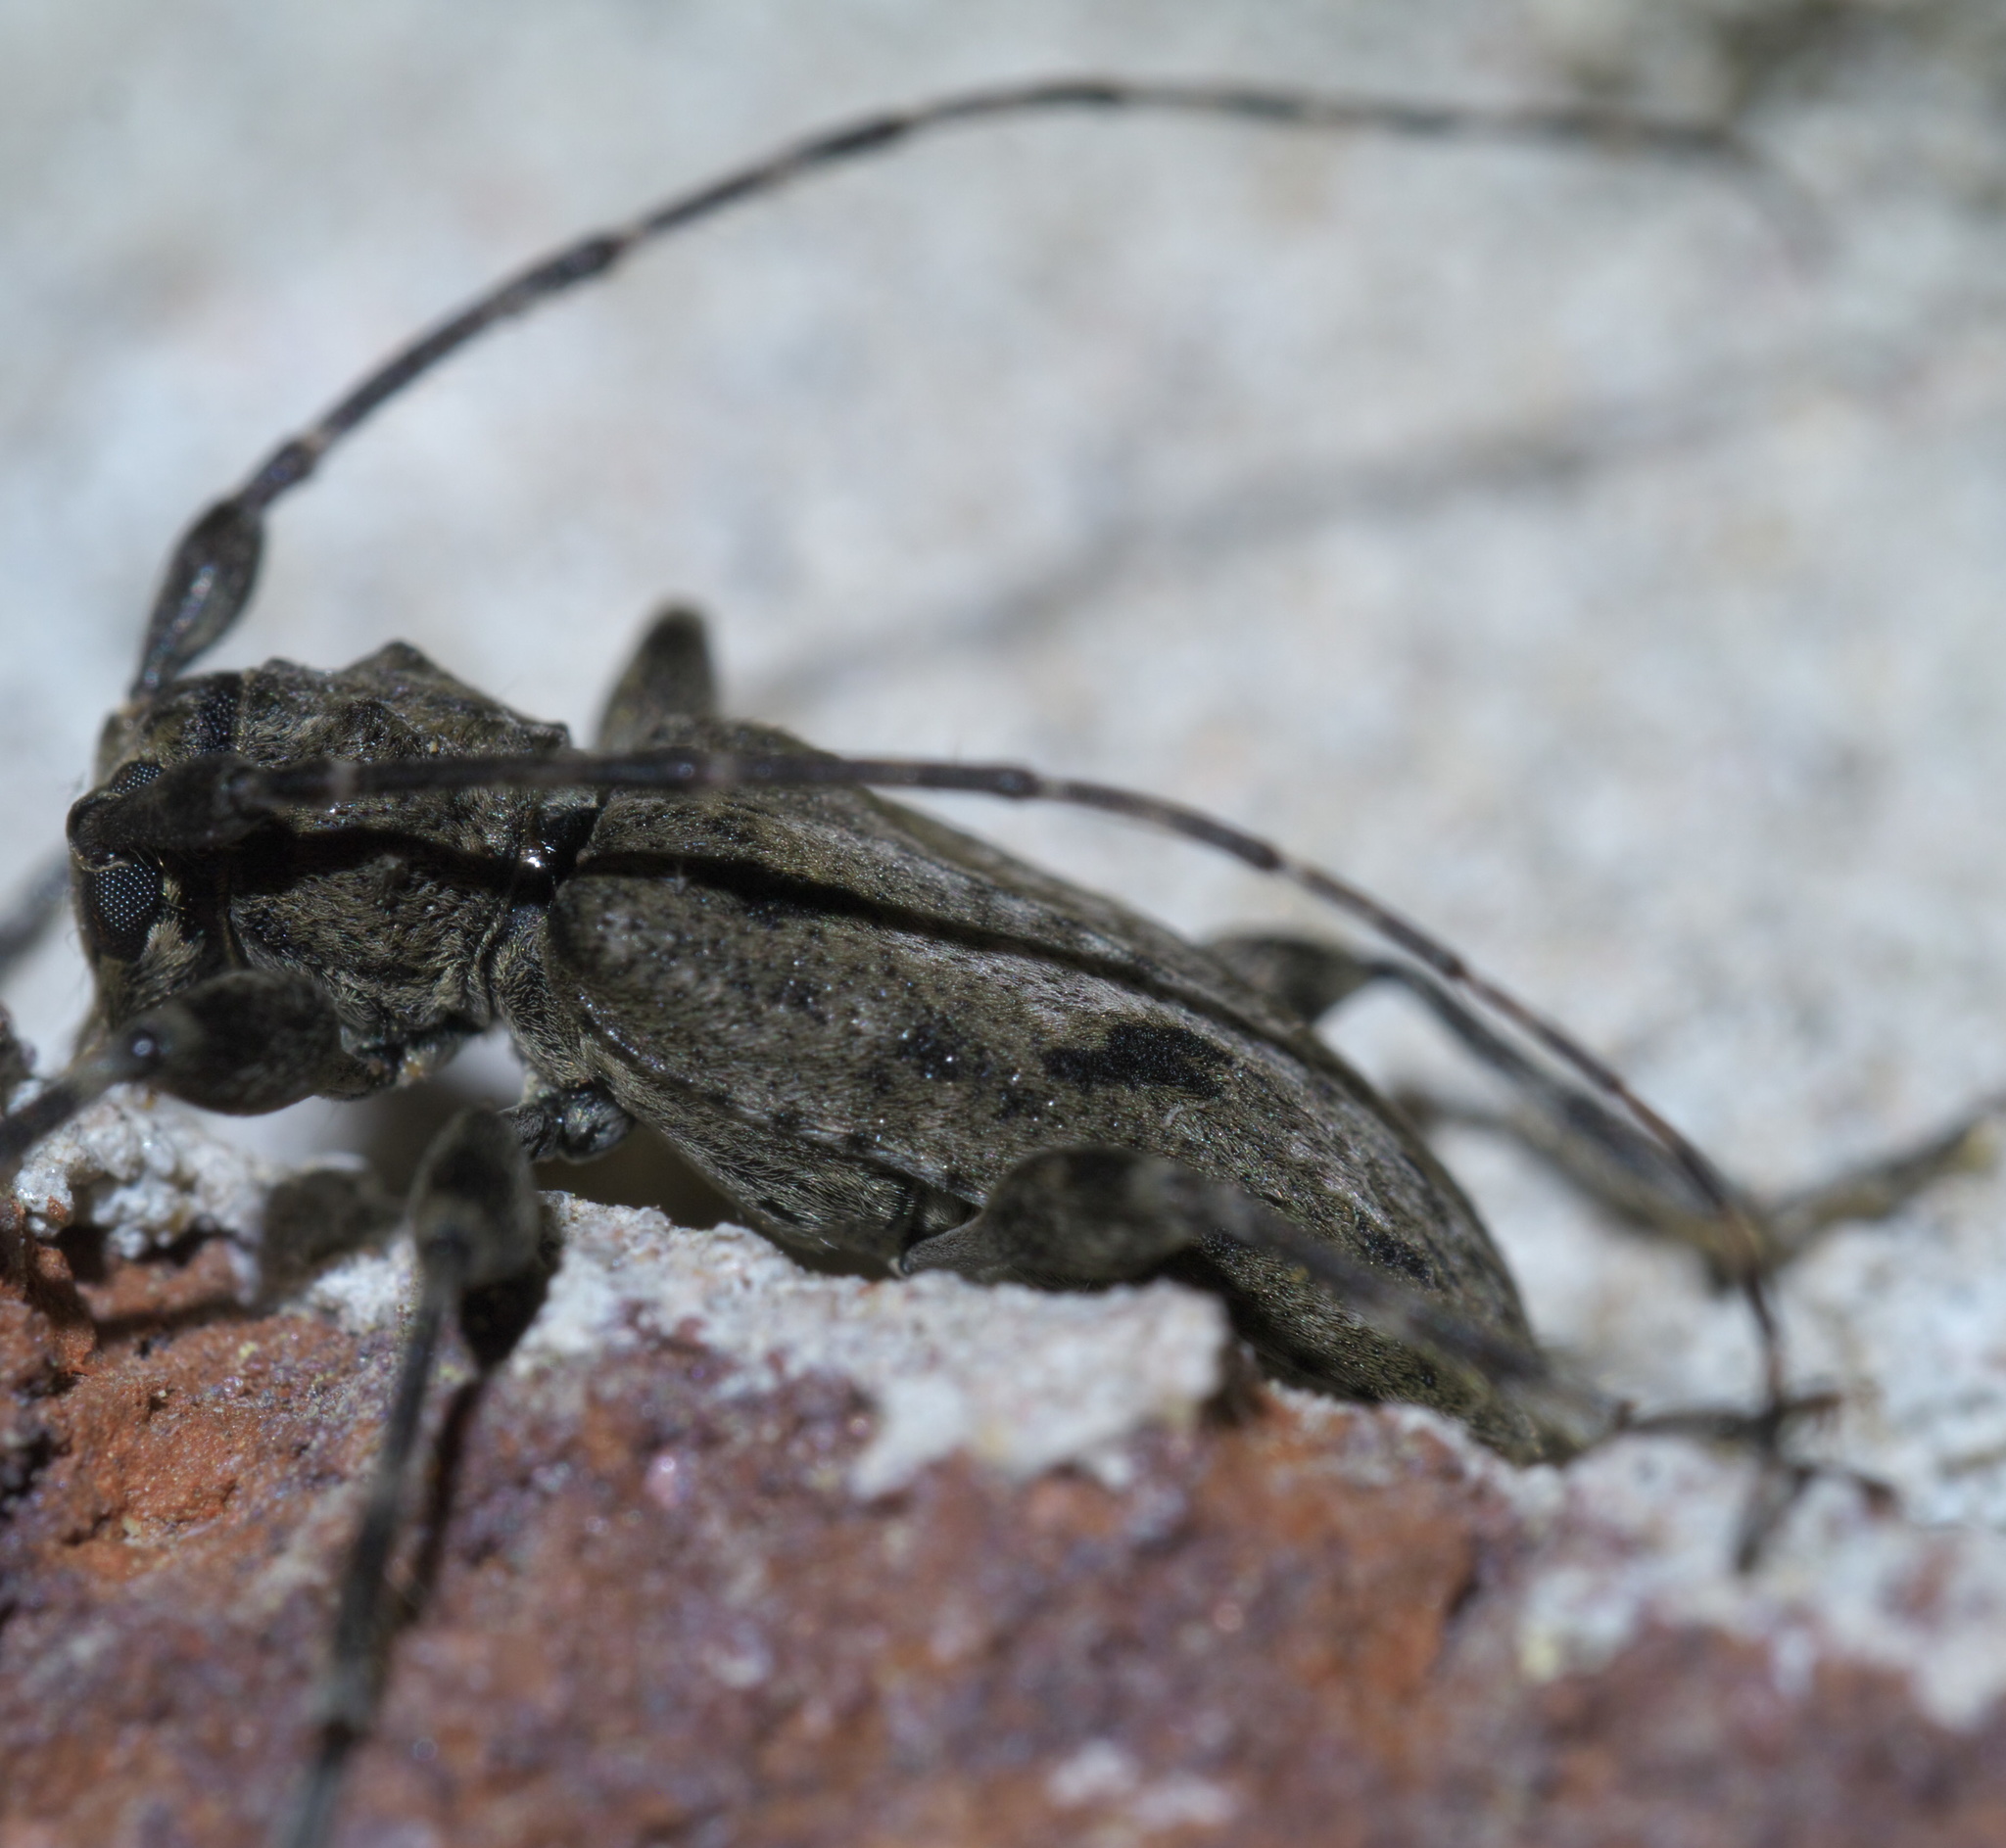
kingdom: Animalia
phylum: Arthropoda
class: Insecta
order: Coleoptera
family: Cerambycidae
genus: Aegomorphus
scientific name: Aegomorphus modestus
